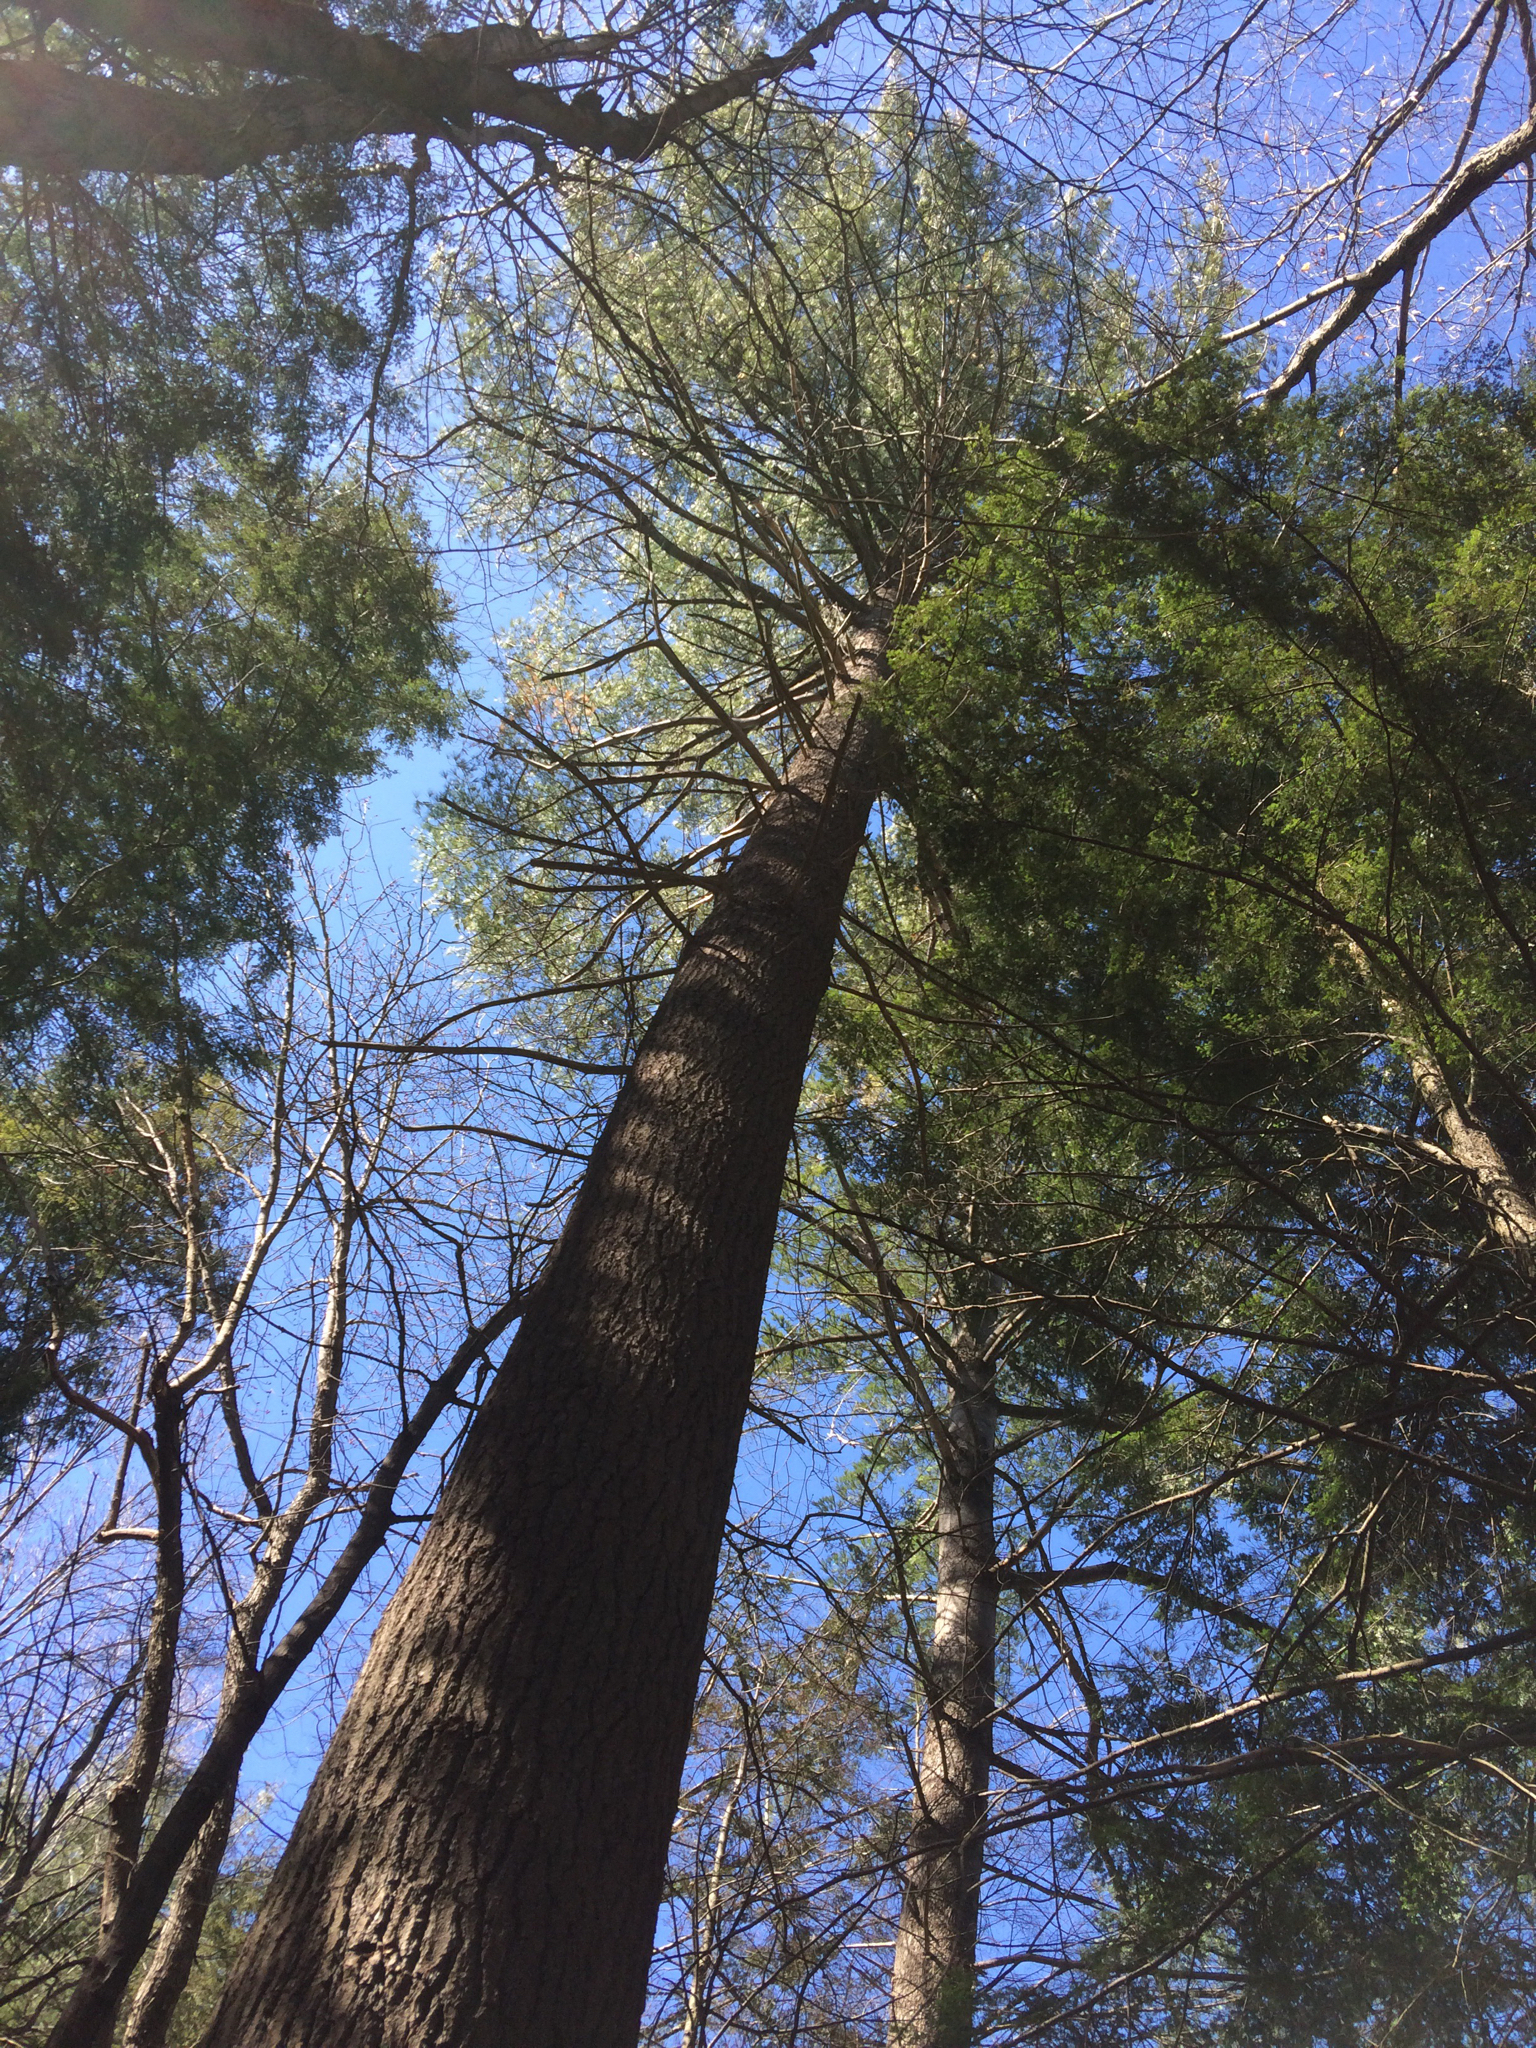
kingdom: Plantae
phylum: Tracheophyta
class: Pinopsida
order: Pinales
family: Pinaceae
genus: Pinus
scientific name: Pinus strobus
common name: Weymouth pine
